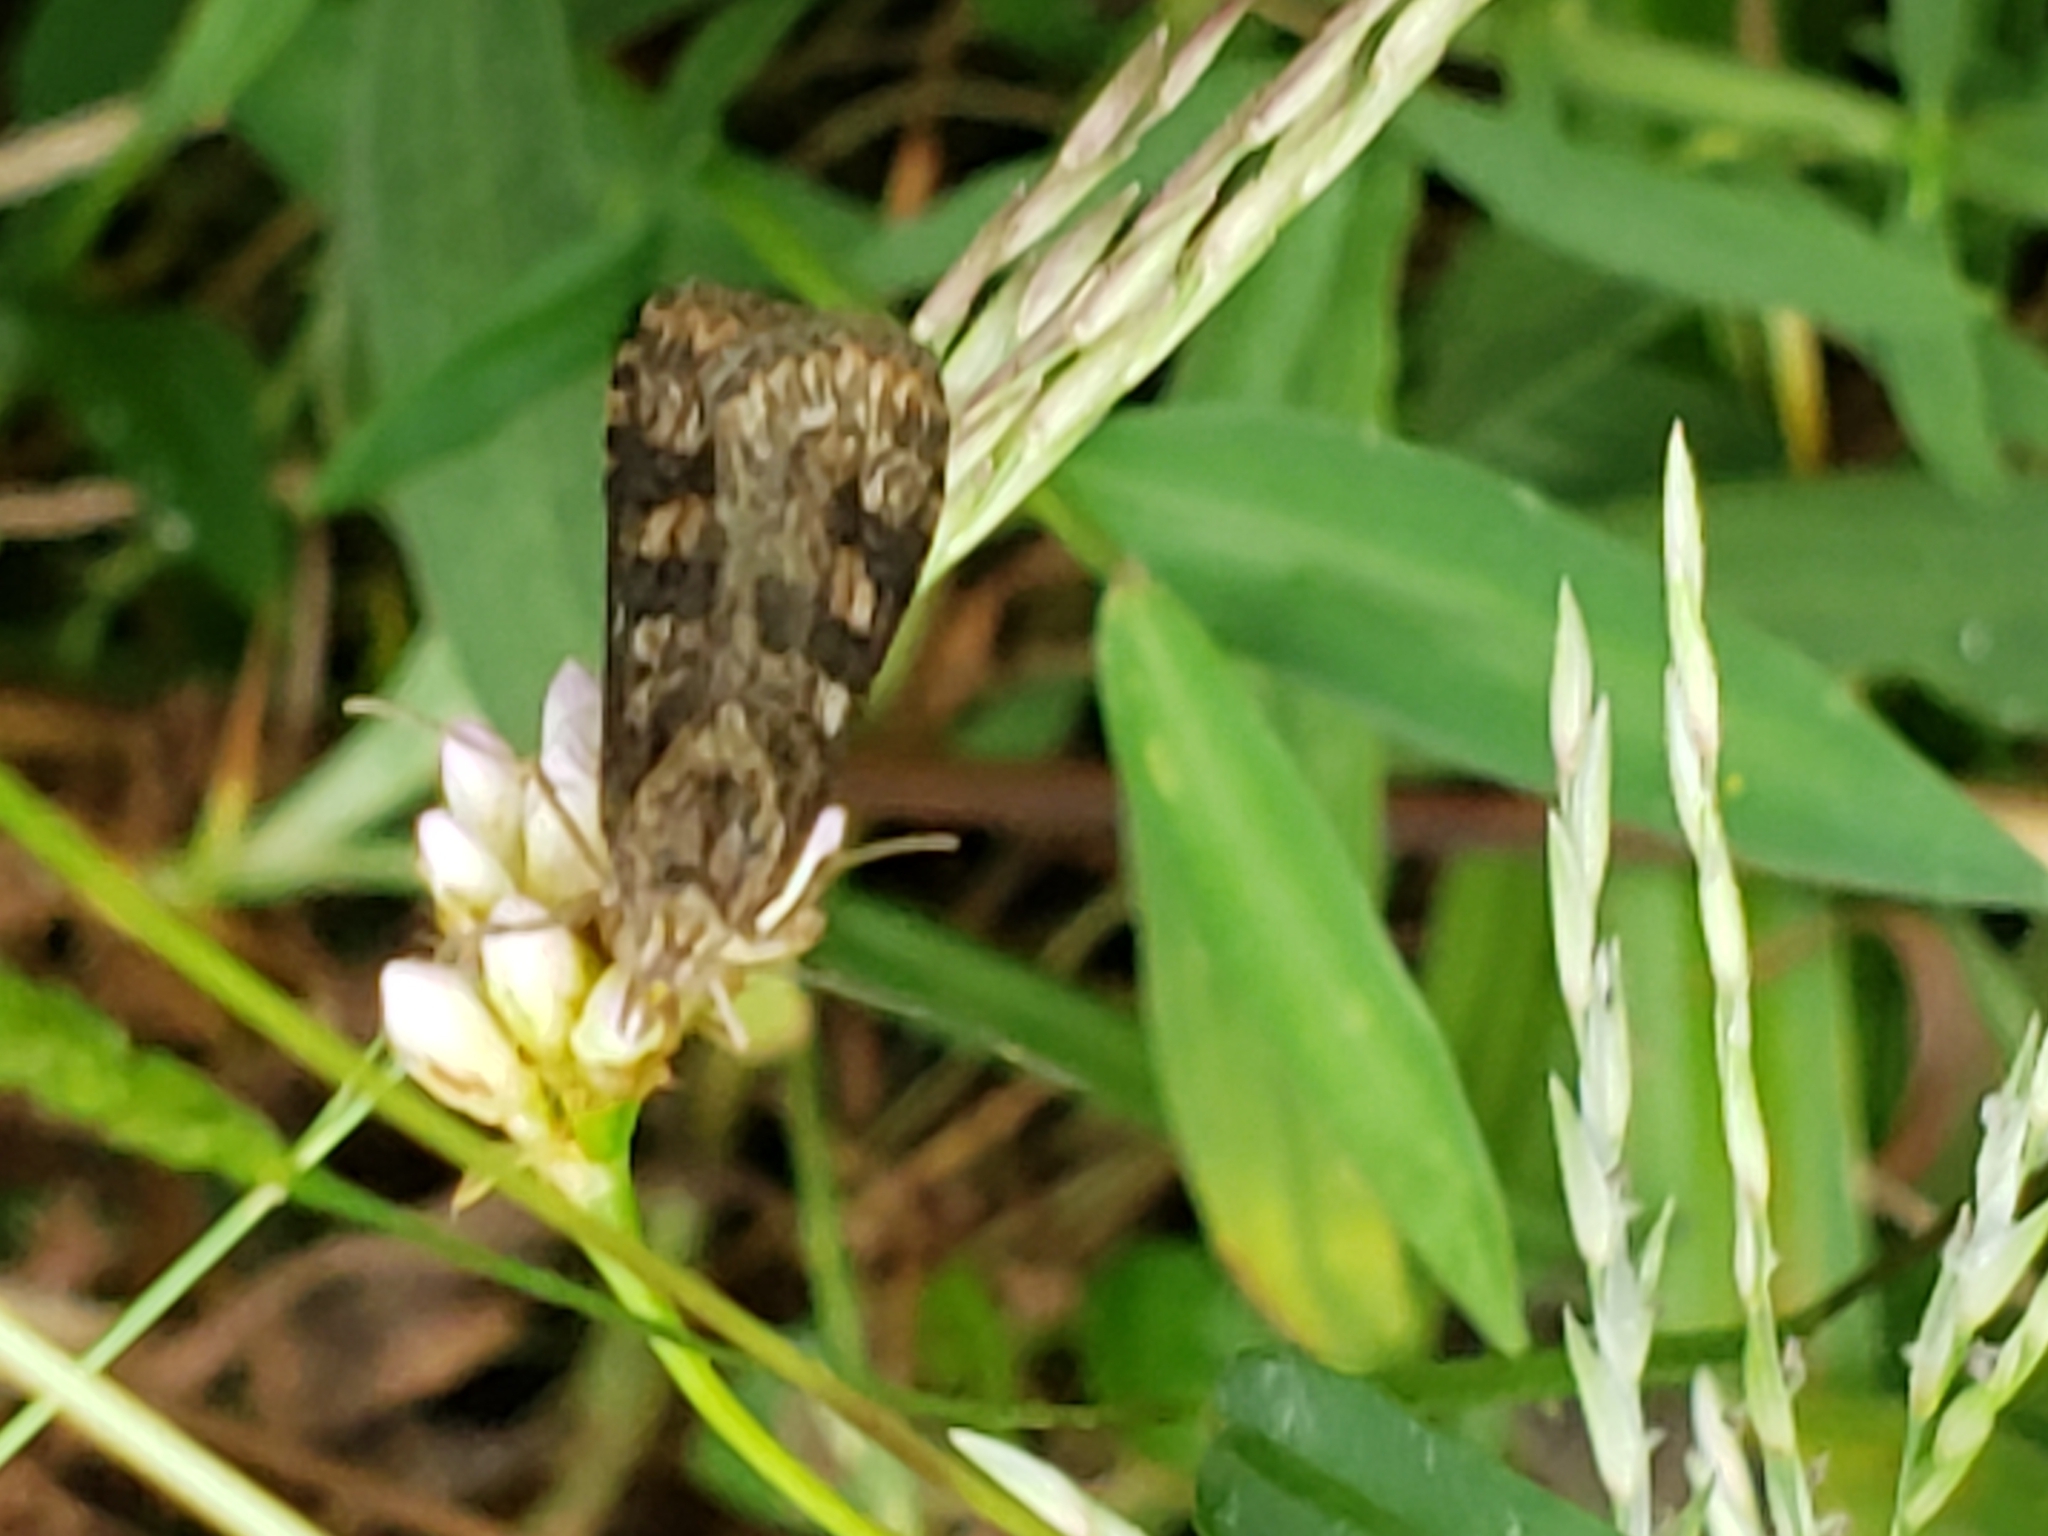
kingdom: Animalia
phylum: Arthropoda
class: Insecta
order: Lepidoptera
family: Crambidae
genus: Nomophila
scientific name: Nomophila nearctica
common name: American rush veneer
